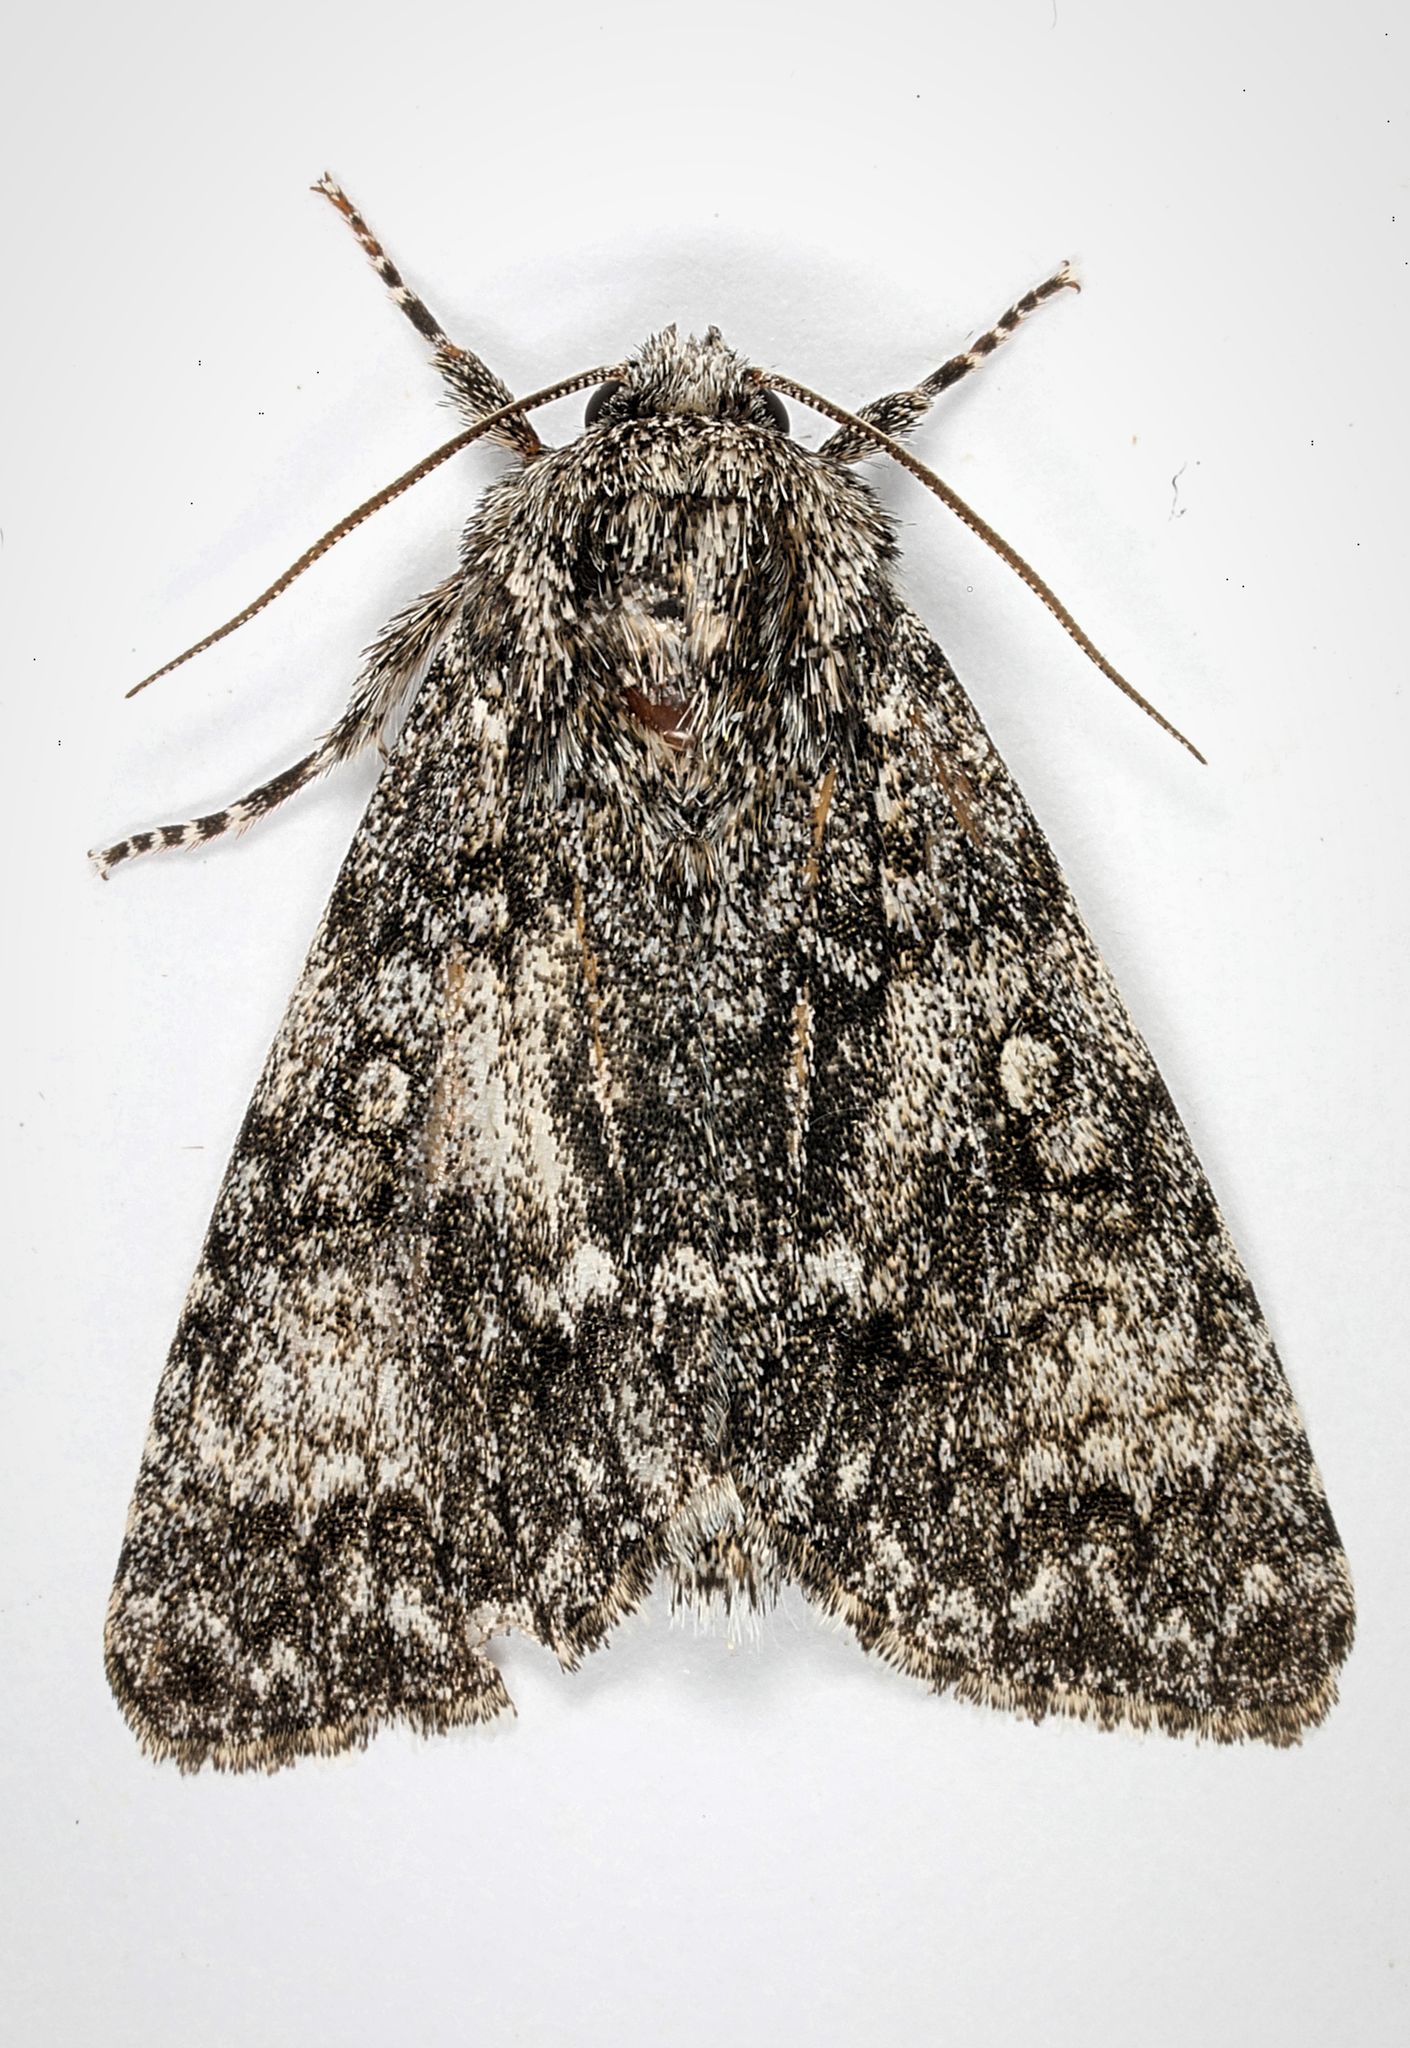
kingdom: Animalia
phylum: Arthropoda
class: Insecta
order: Lepidoptera
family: Noctuidae
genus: Acronicta
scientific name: Acronicta megacephala
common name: Poplar grey
